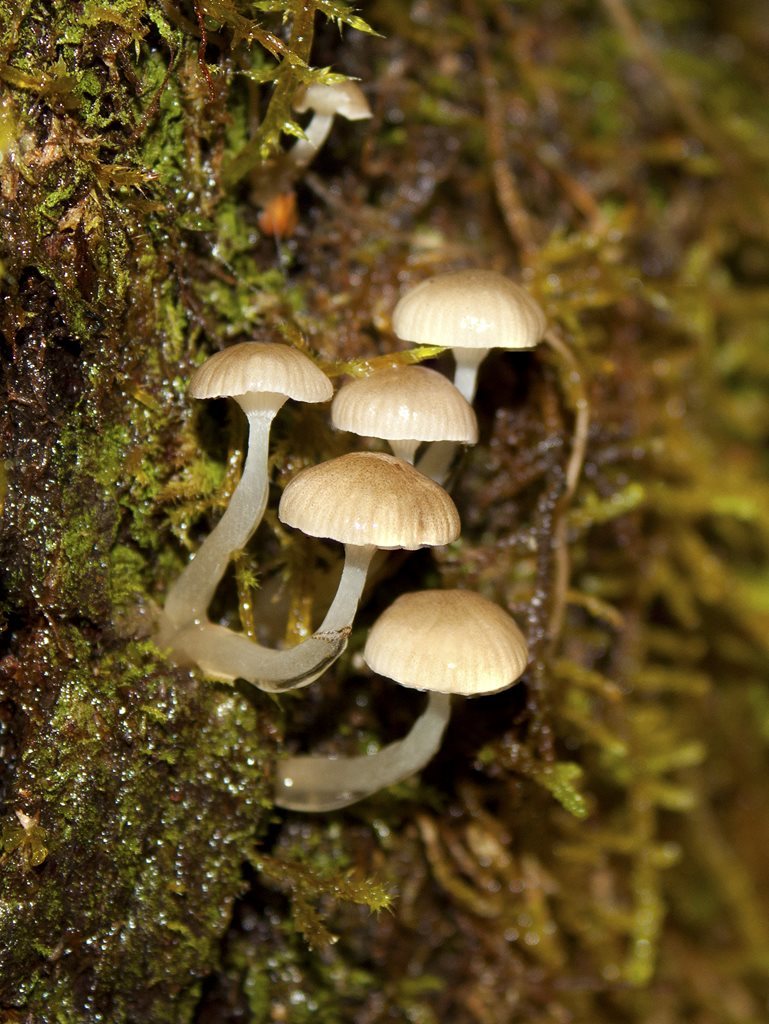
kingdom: Fungi
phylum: Basidiomycota
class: Agaricomycetes
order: Agaricales
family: Mycenaceae
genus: Roridomyces
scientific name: Roridomyces austrororidus
